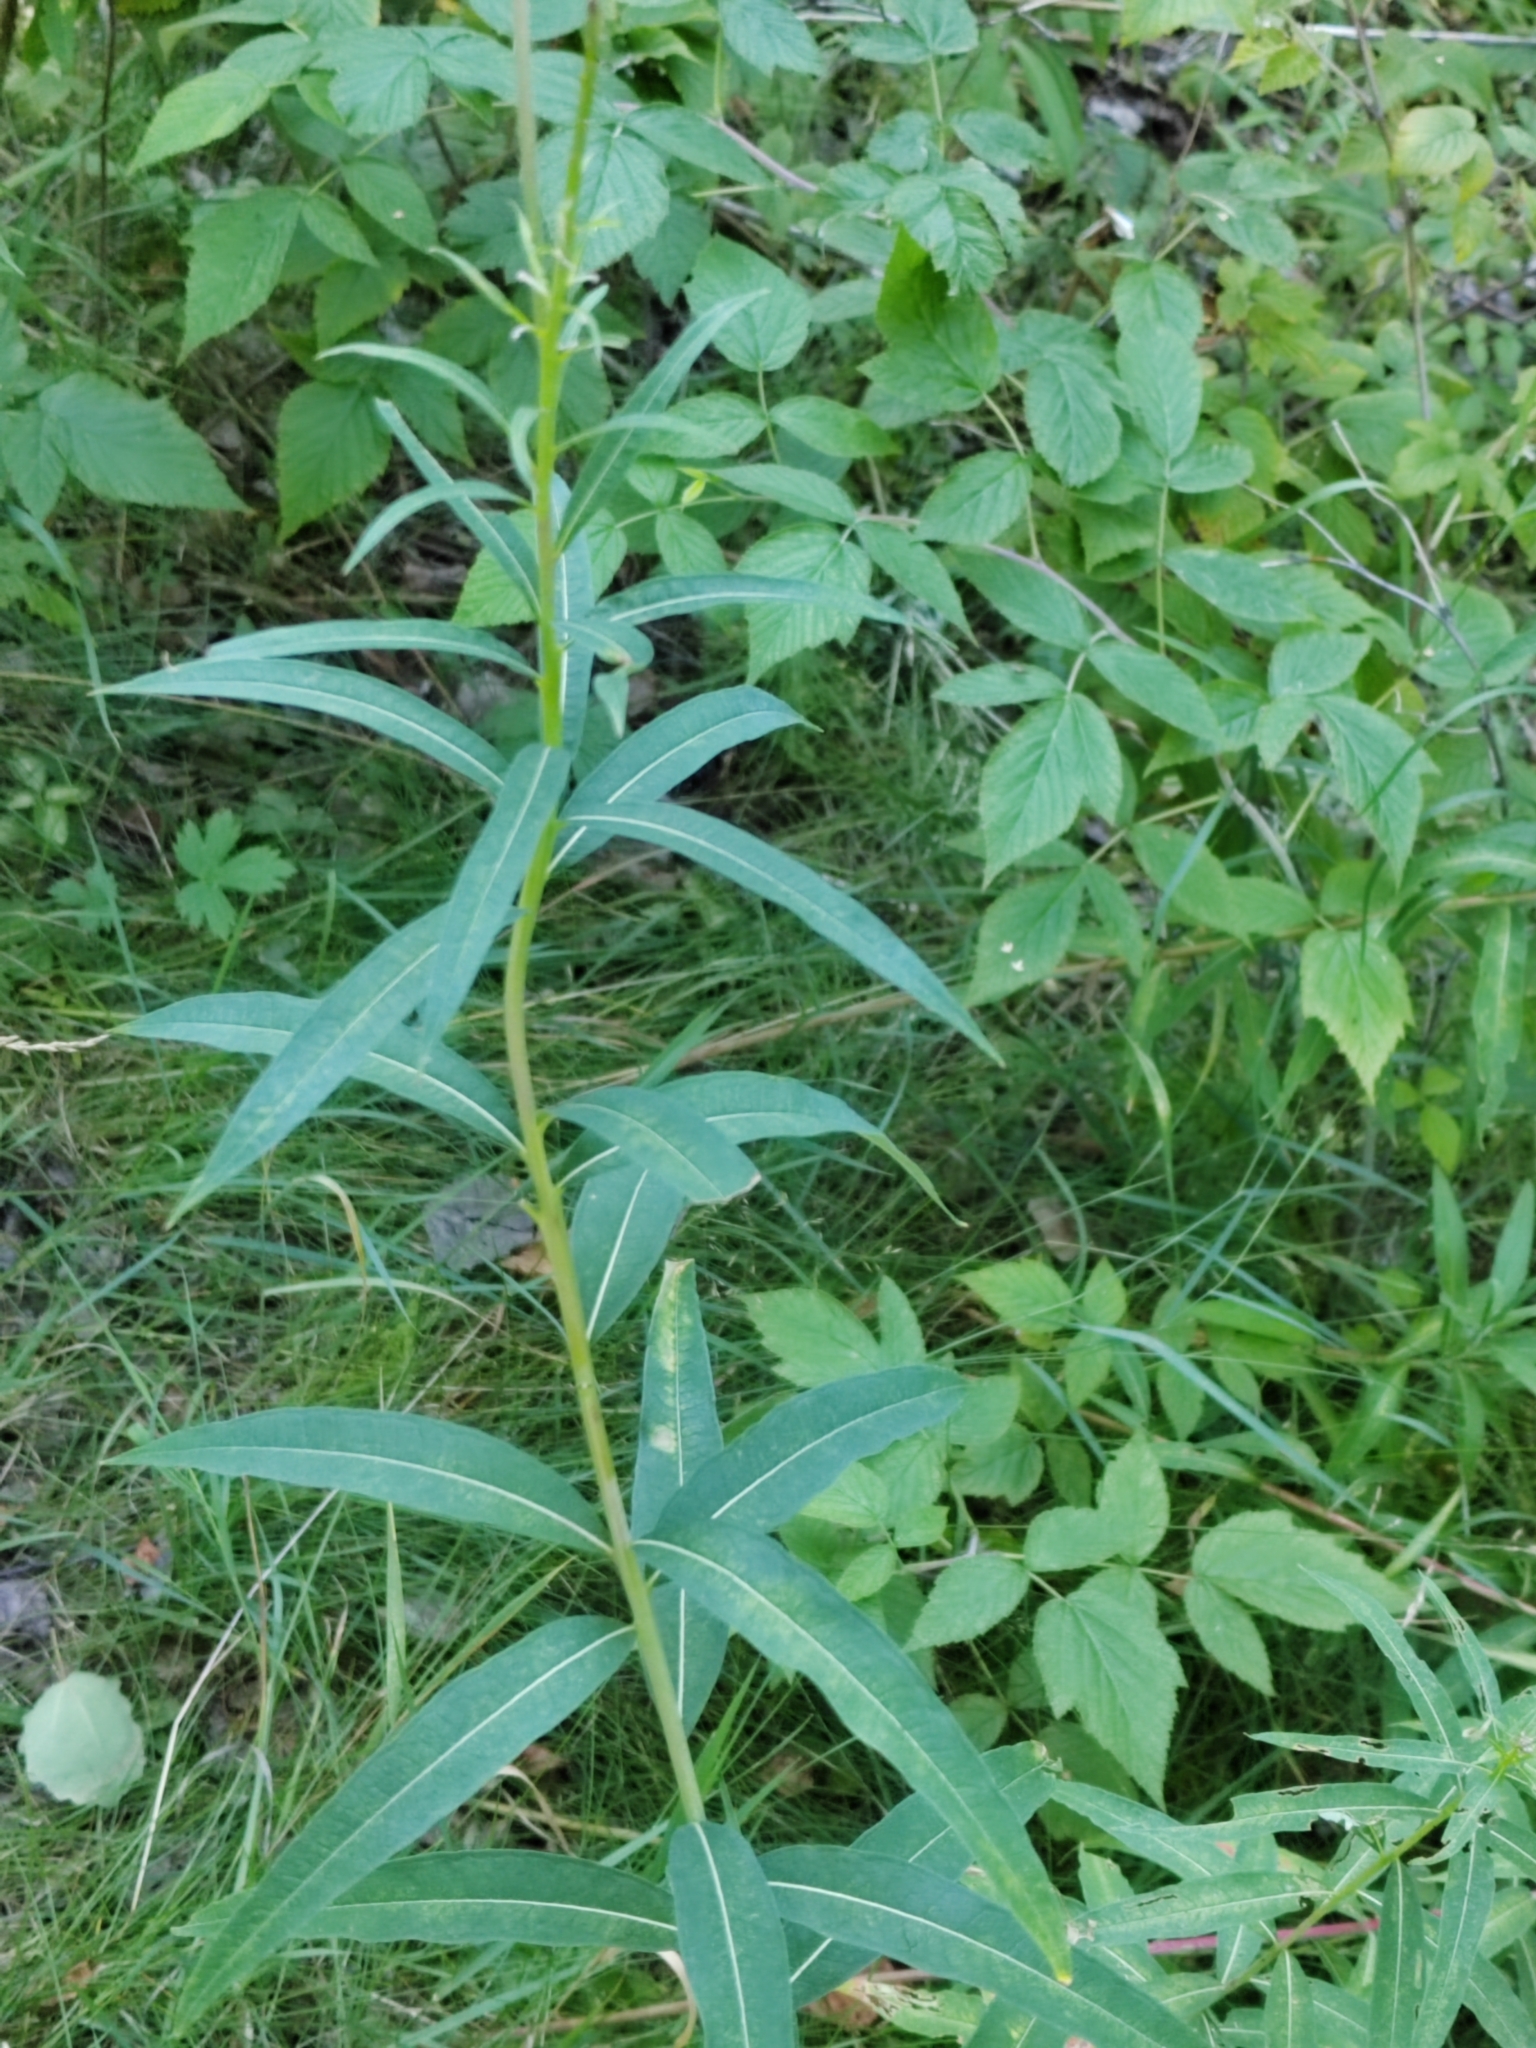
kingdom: Plantae
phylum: Tracheophyta
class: Magnoliopsida
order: Myrtales
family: Onagraceae
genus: Chamaenerion
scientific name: Chamaenerion angustifolium
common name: Fireweed
